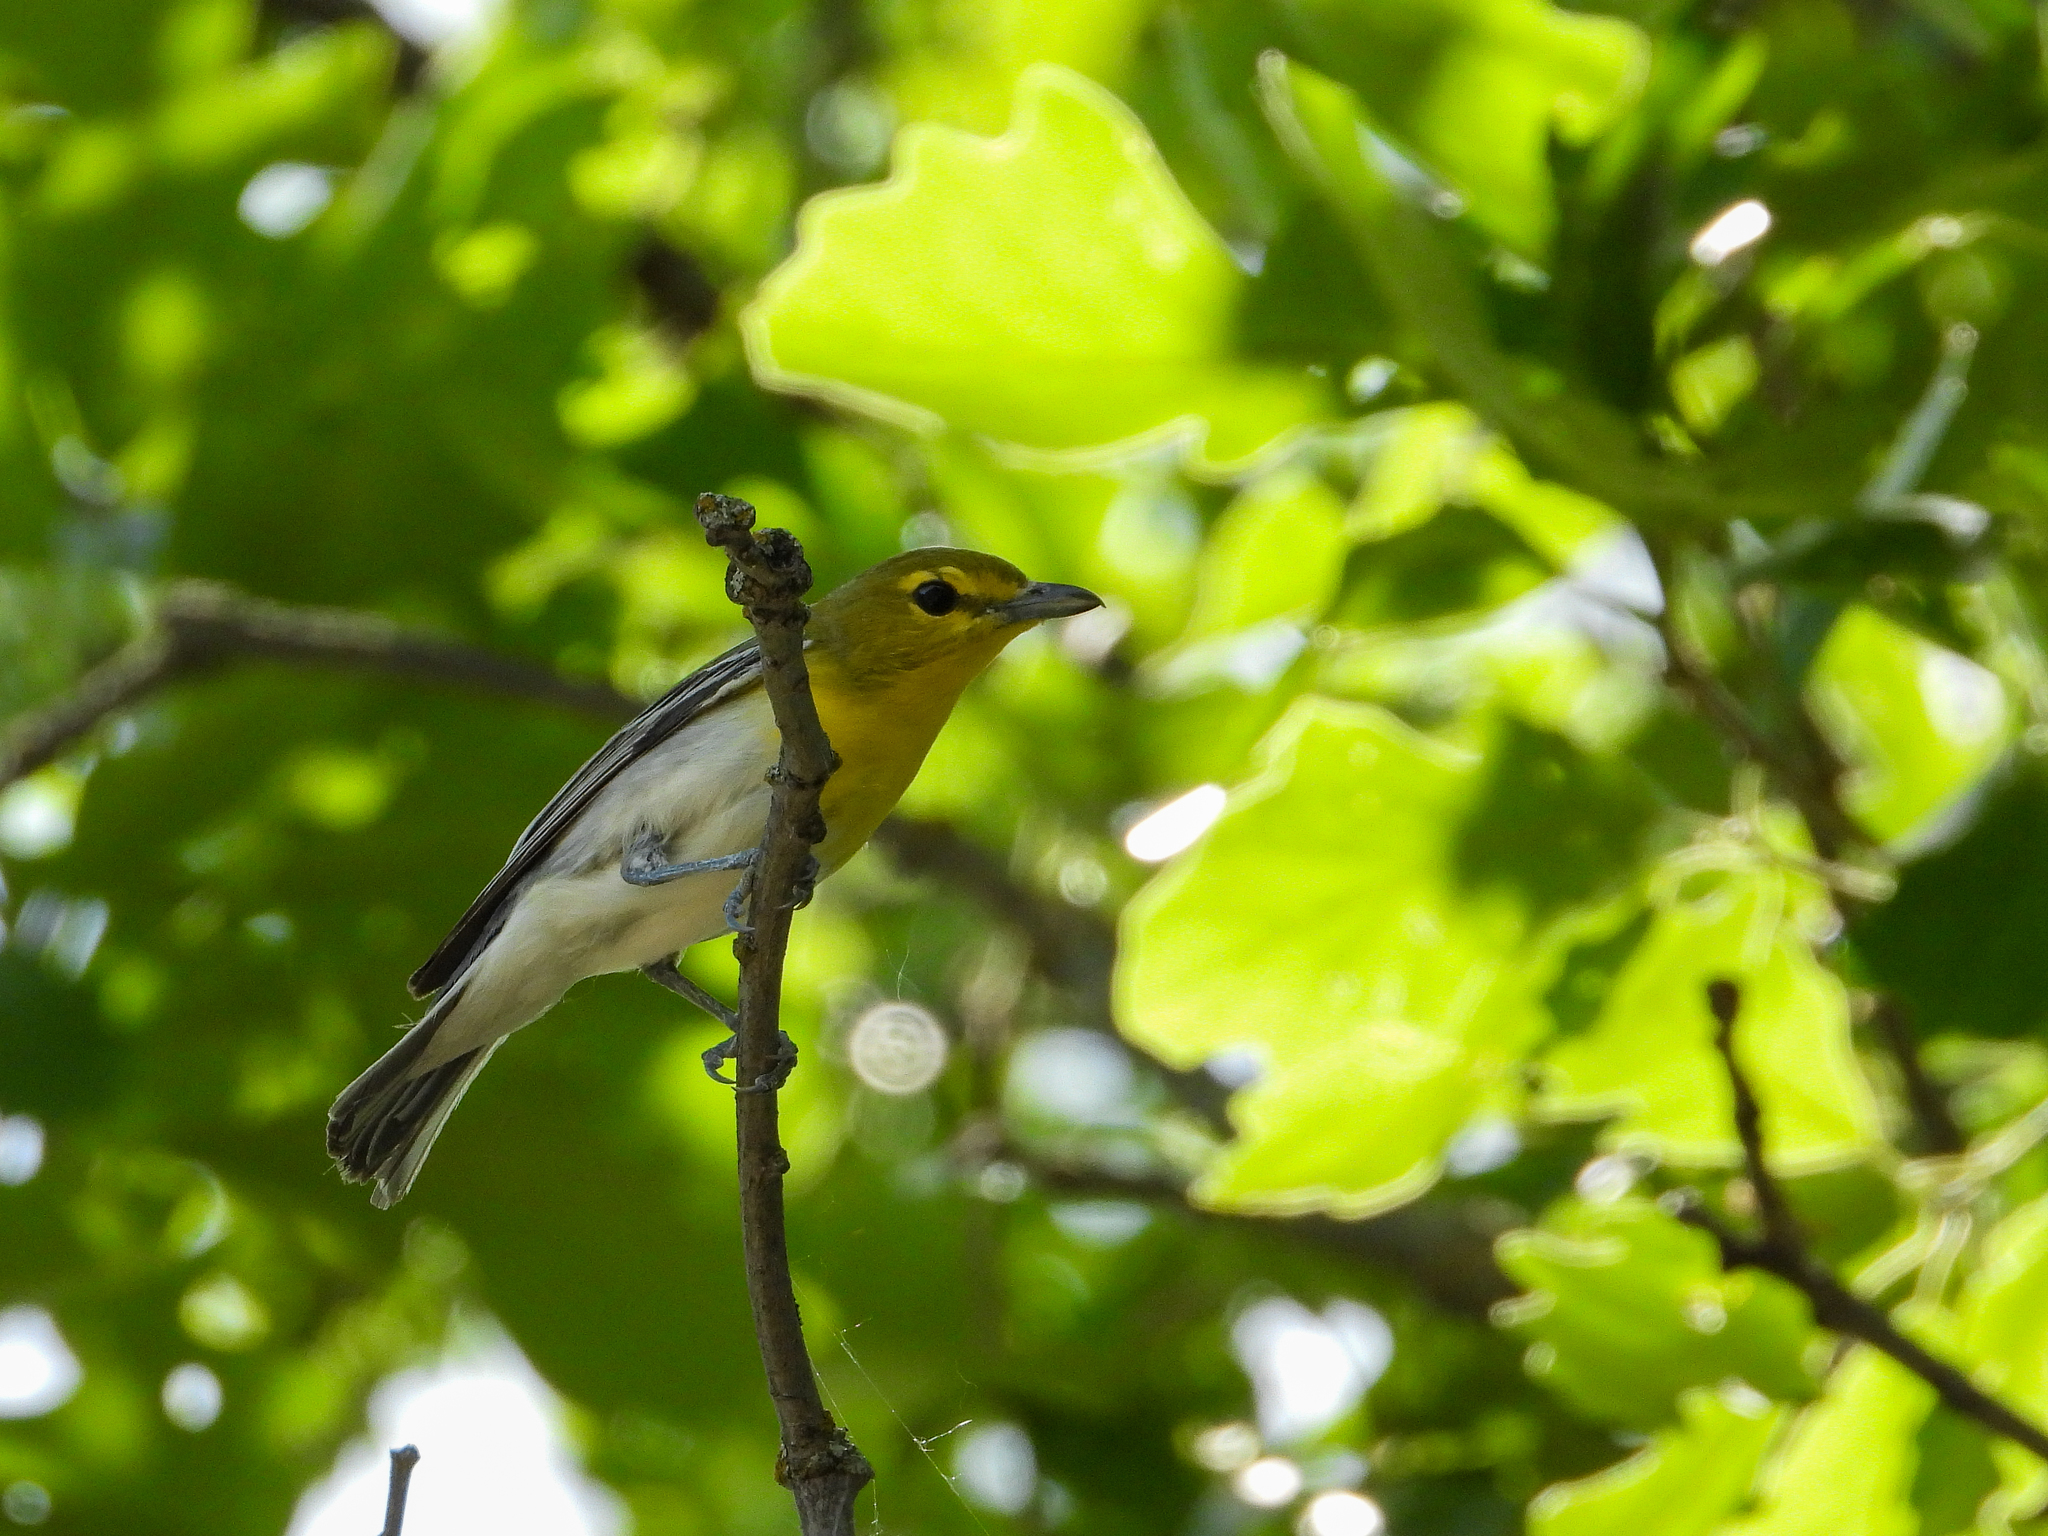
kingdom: Animalia
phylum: Chordata
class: Aves
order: Passeriformes
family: Vireonidae
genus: Vireo
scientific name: Vireo flavifrons
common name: Yellow-throated vireo
